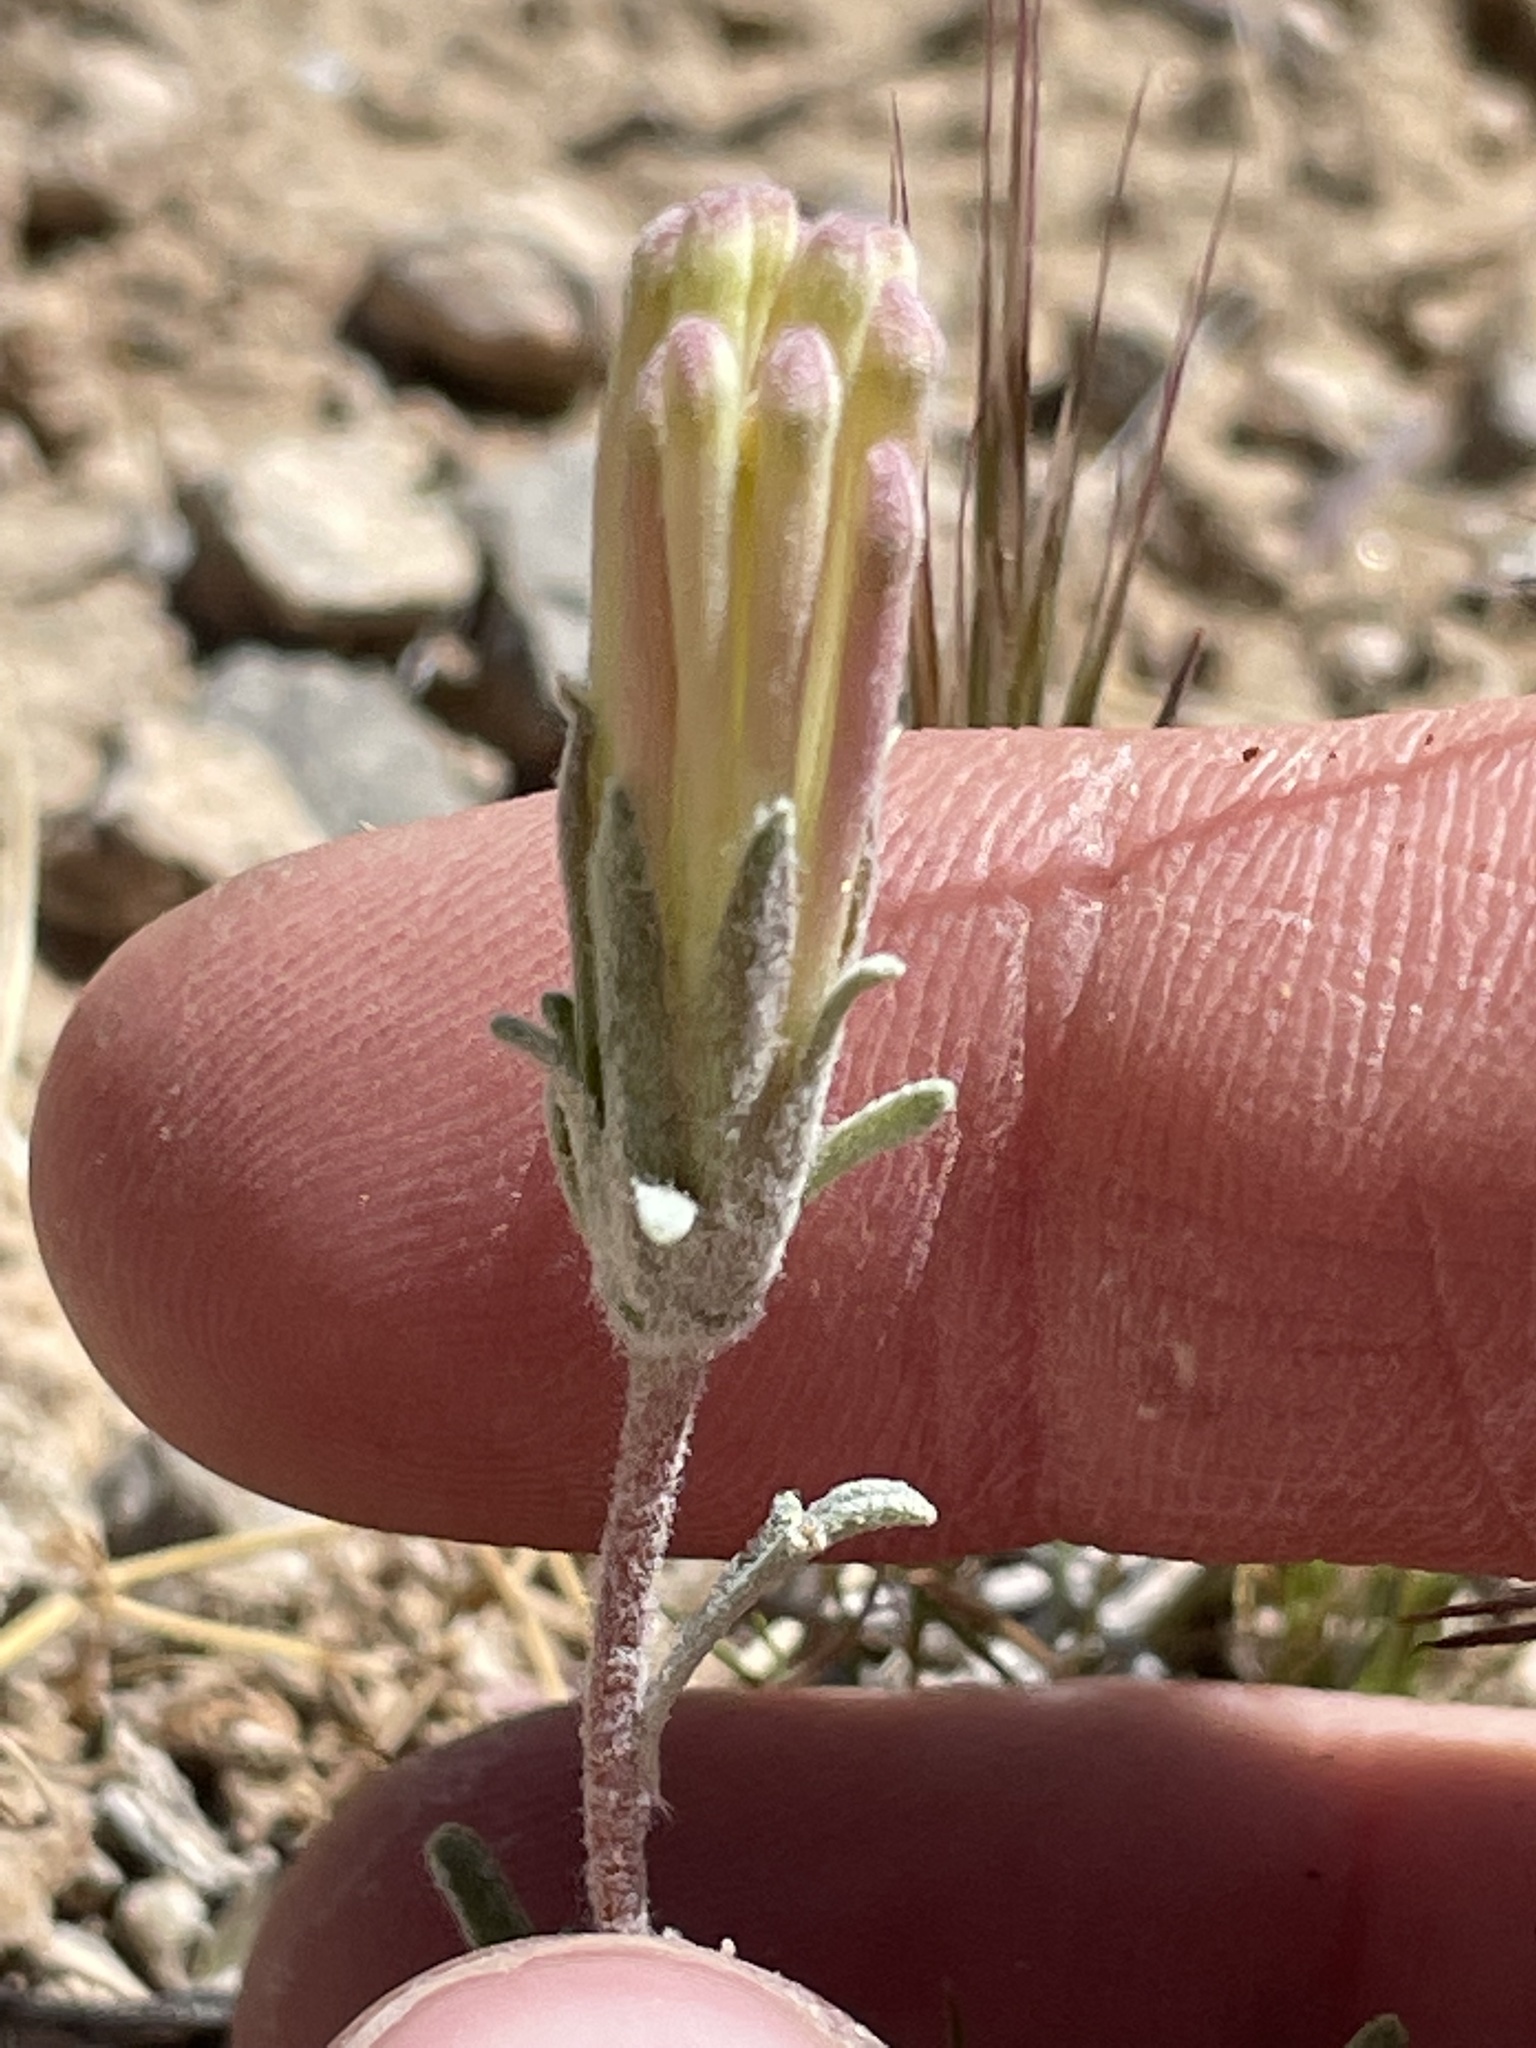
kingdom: Plantae
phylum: Tracheophyta
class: Magnoliopsida
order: Asterales
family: Asteraceae
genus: Chaenactis
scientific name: Chaenactis macrantha
